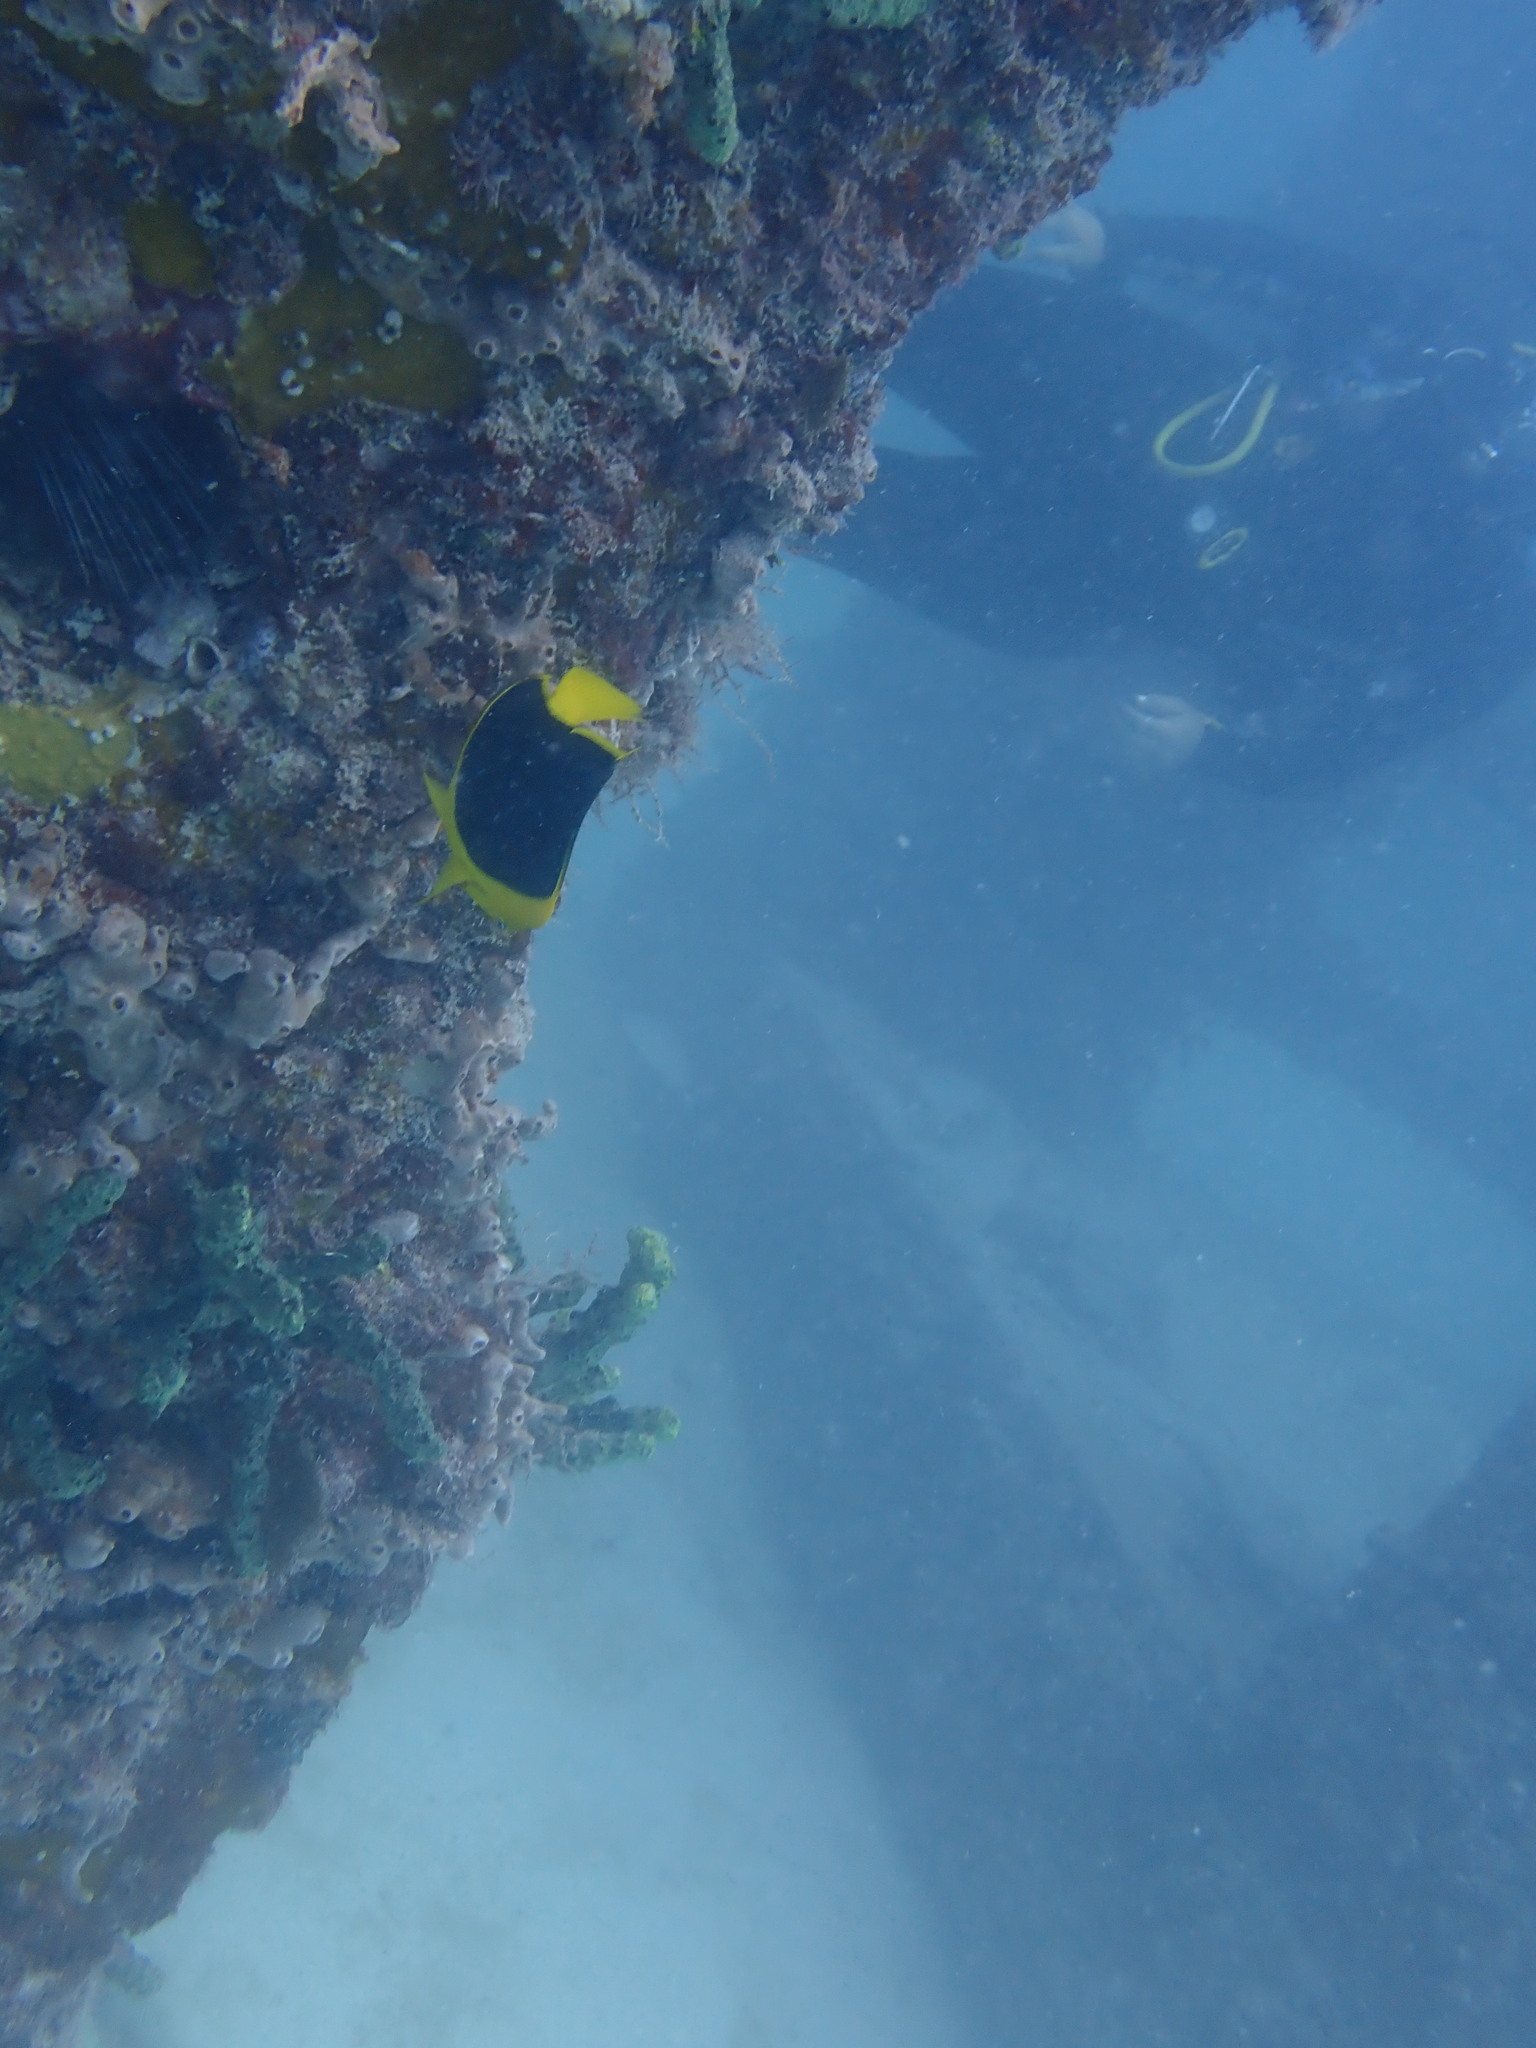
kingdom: Animalia
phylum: Chordata
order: Perciformes
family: Pomacanthidae
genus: Holacanthus
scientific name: Holacanthus tricolor
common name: Rock beauty
